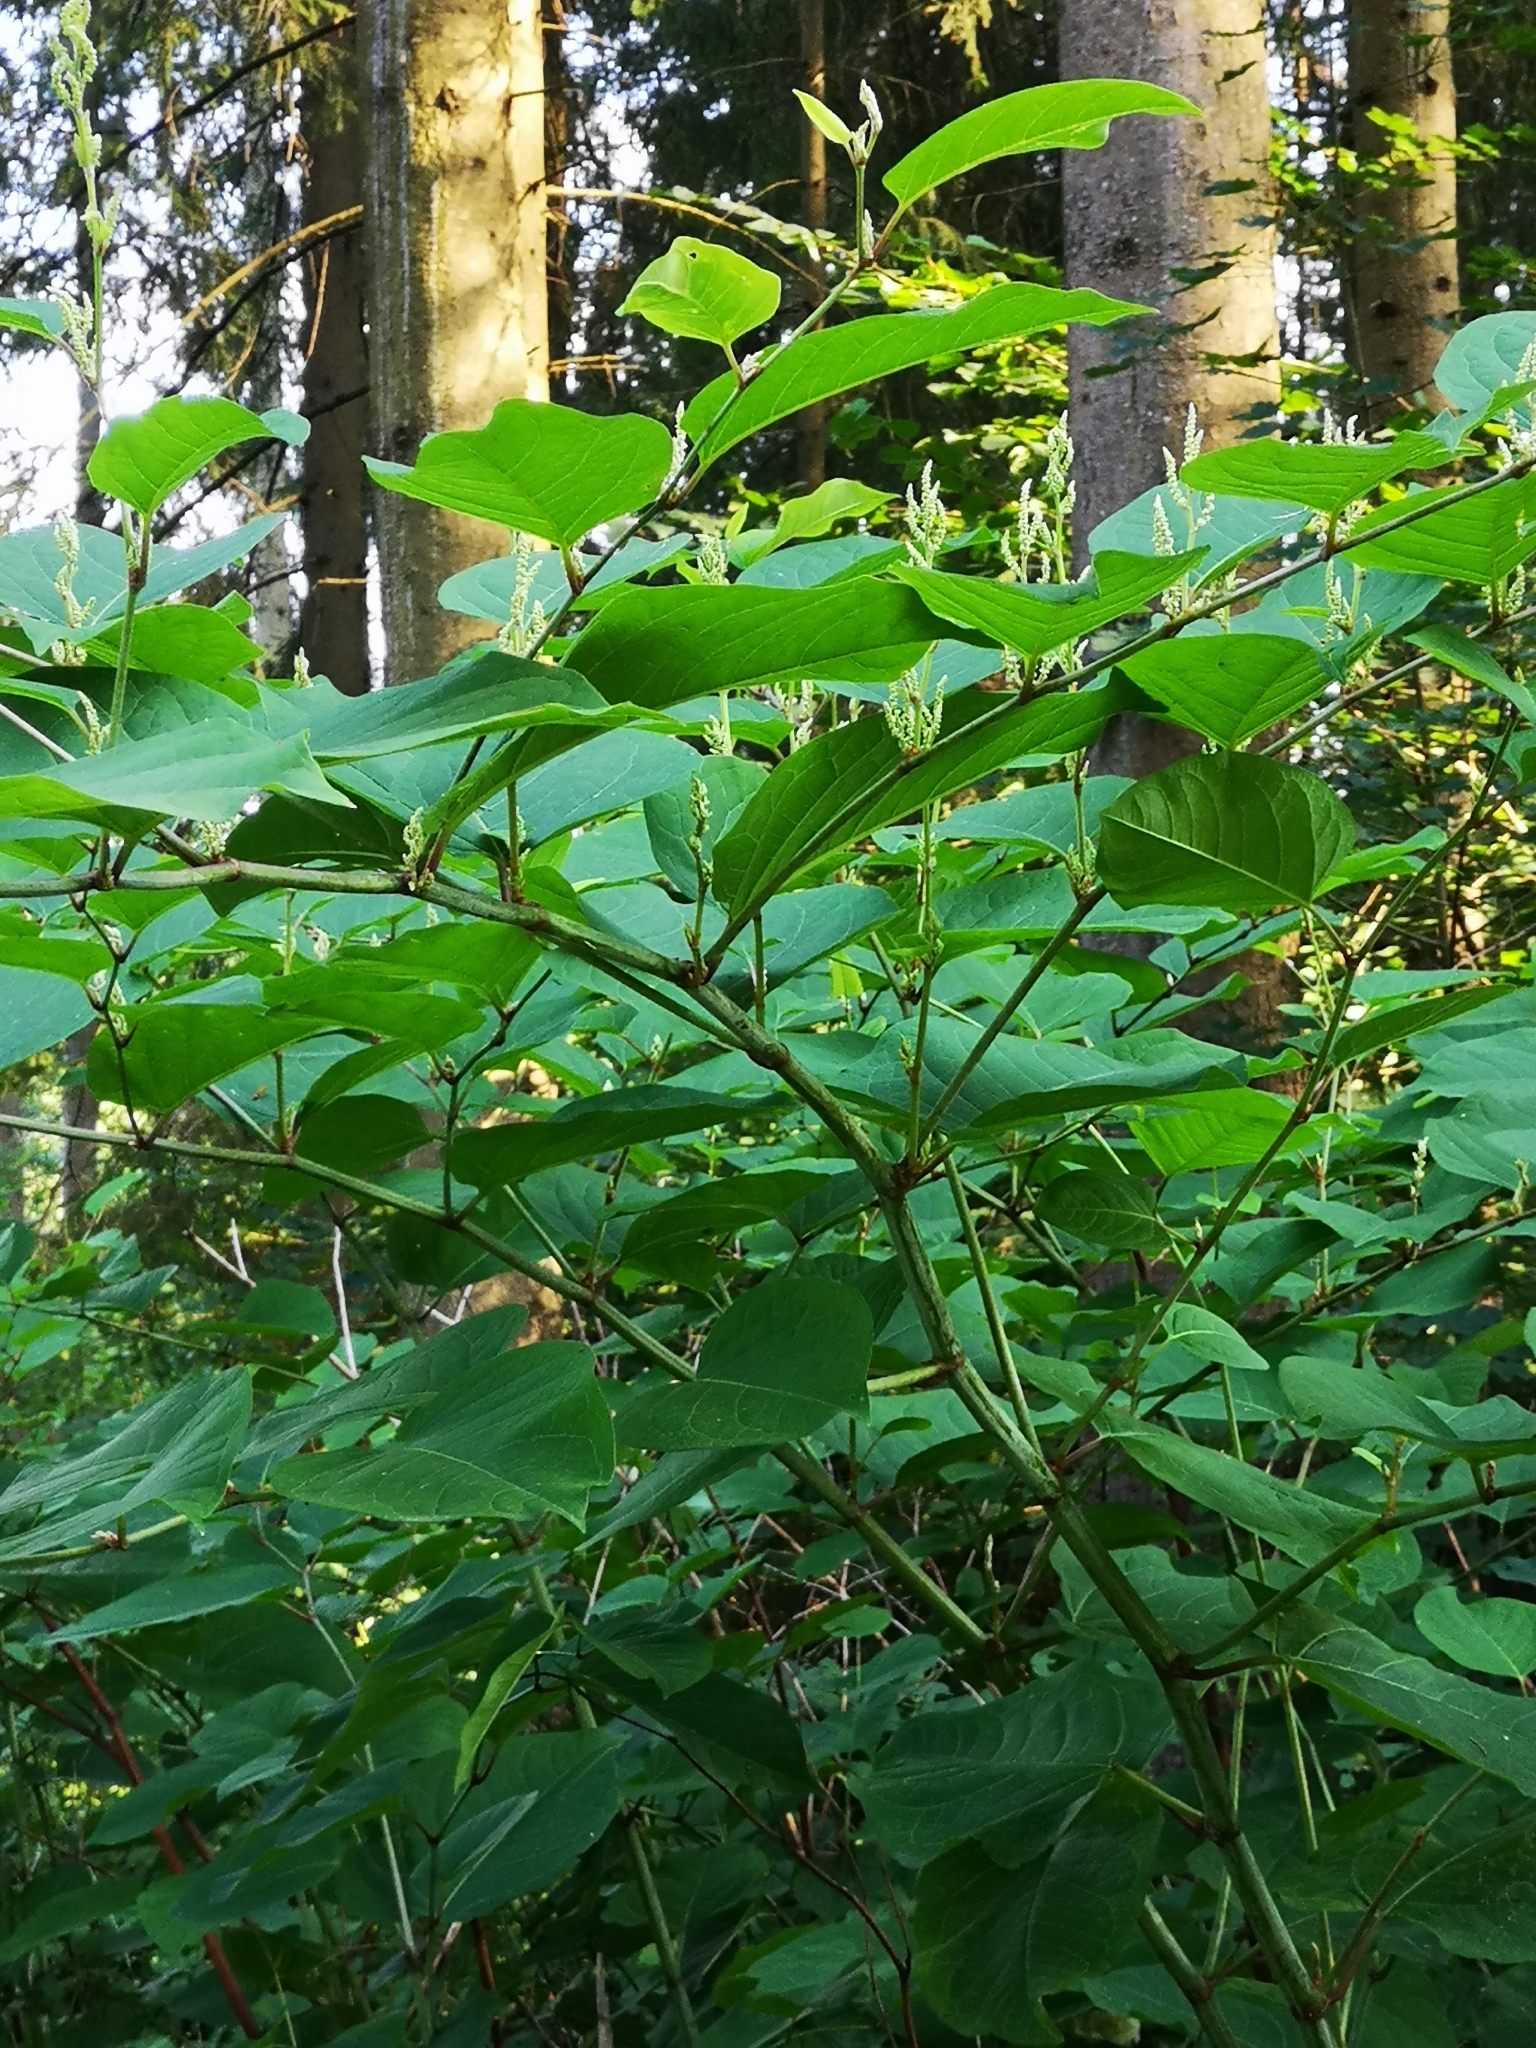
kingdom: Plantae
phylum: Tracheophyta
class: Magnoliopsida
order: Caryophyllales
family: Polygonaceae
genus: Reynoutria
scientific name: Reynoutria bohemica
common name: Bohemian knotweed
